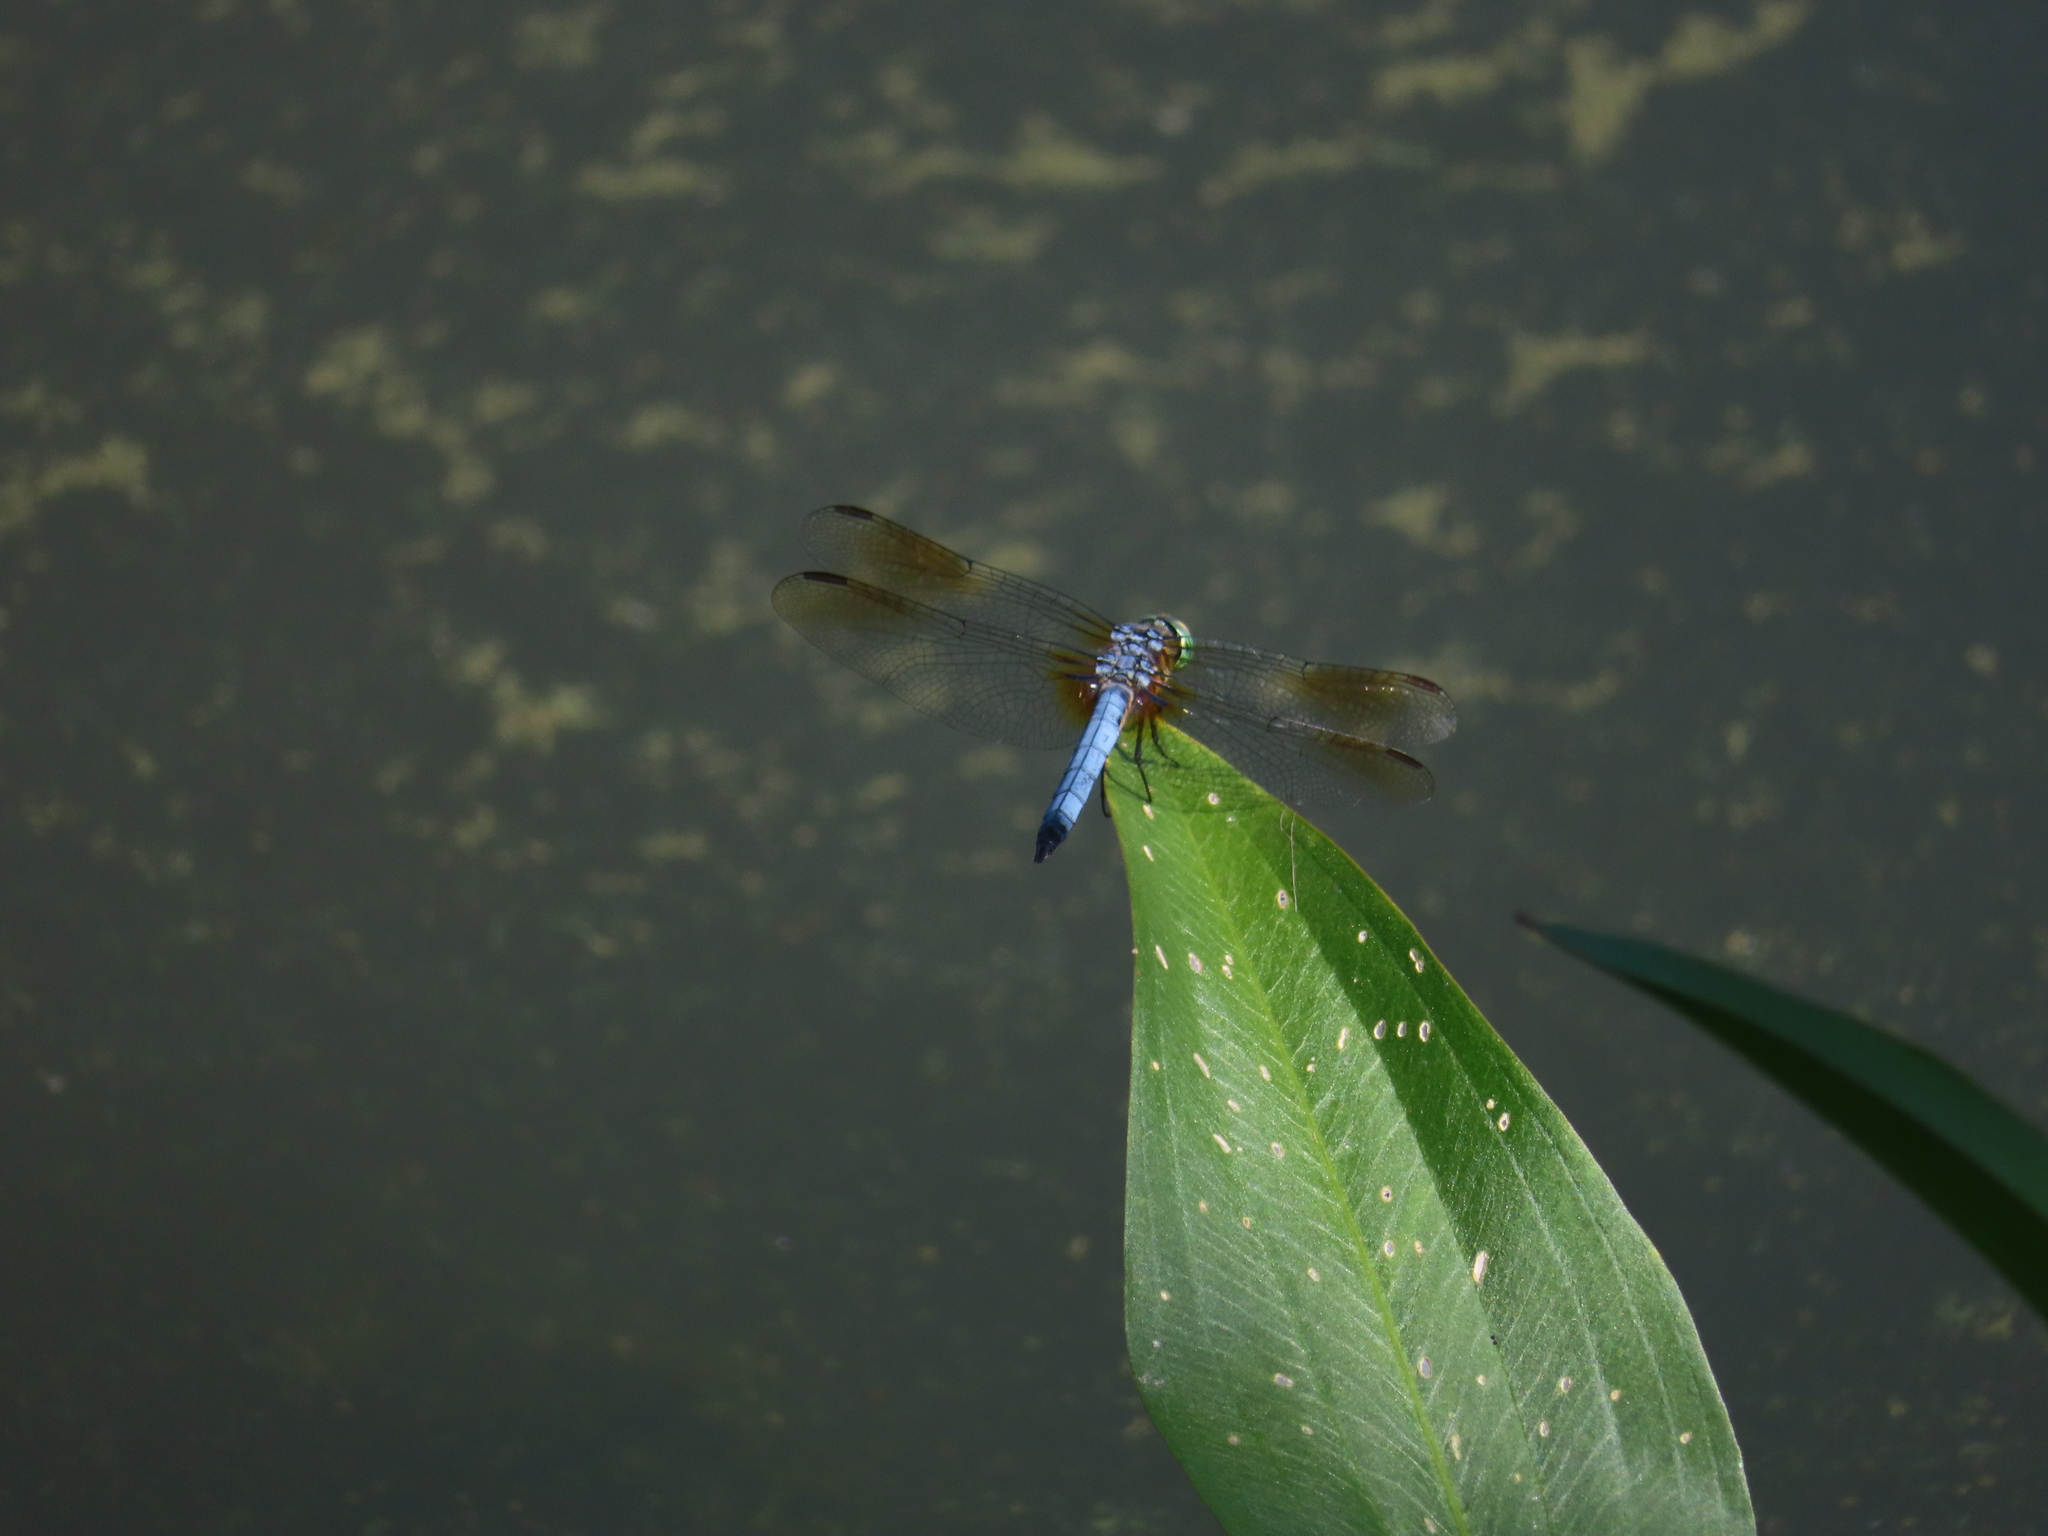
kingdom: Animalia
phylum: Arthropoda
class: Insecta
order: Odonata
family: Libellulidae
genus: Pachydiplax
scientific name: Pachydiplax longipennis
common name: Blue dasher
